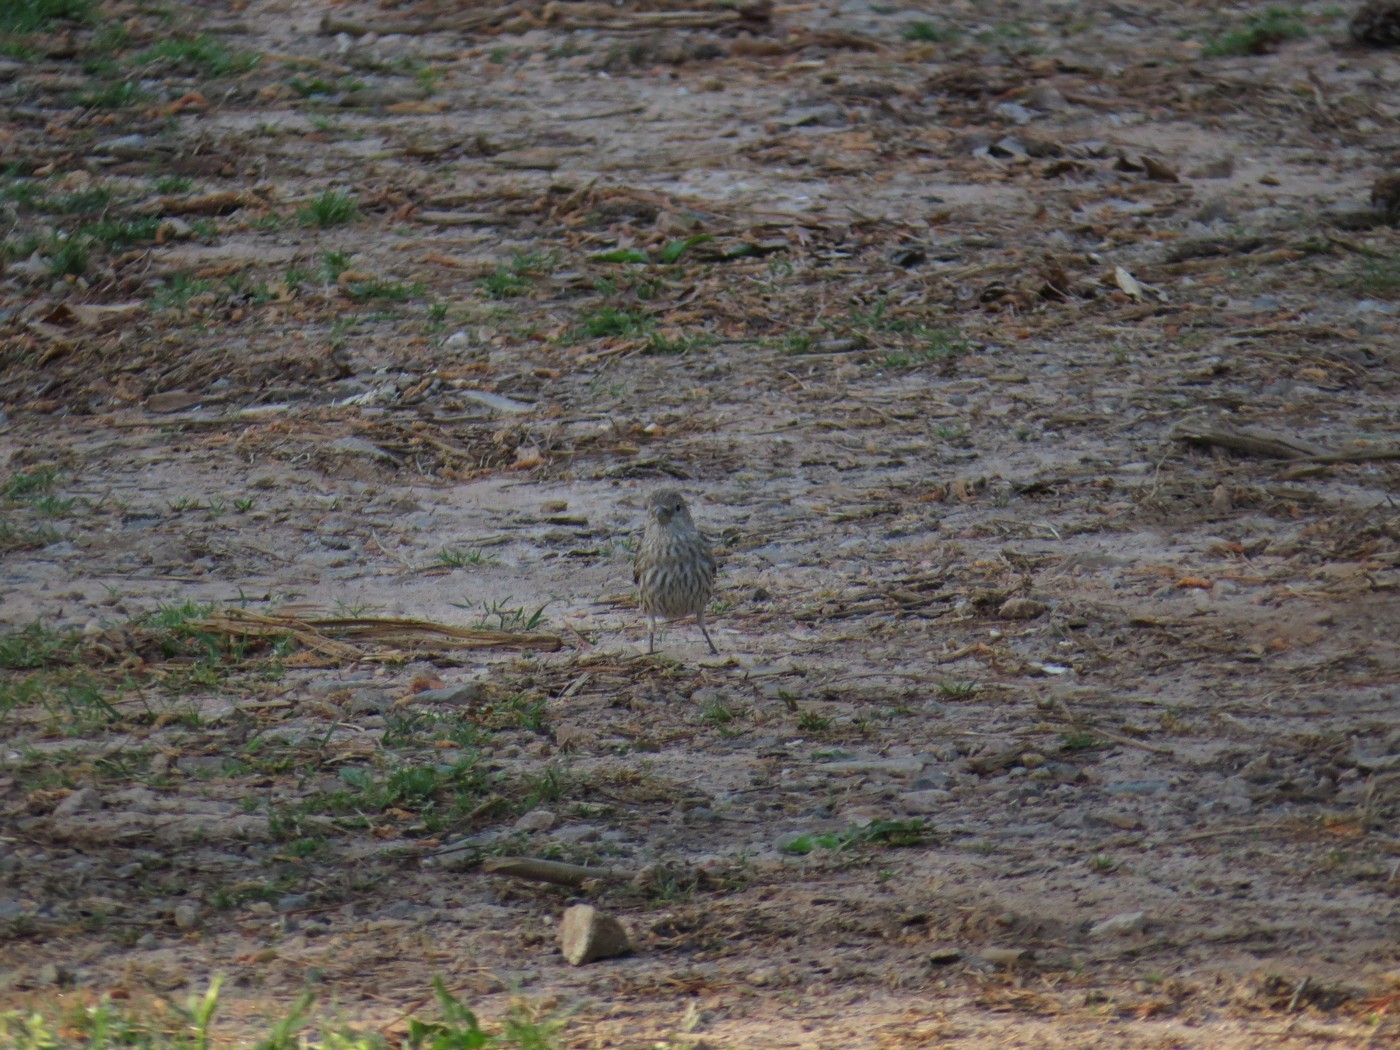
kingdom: Animalia
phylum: Chordata
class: Aves
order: Passeriformes
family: Fringillidae
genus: Haemorhous
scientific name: Haemorhous mexicanus
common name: House finch
